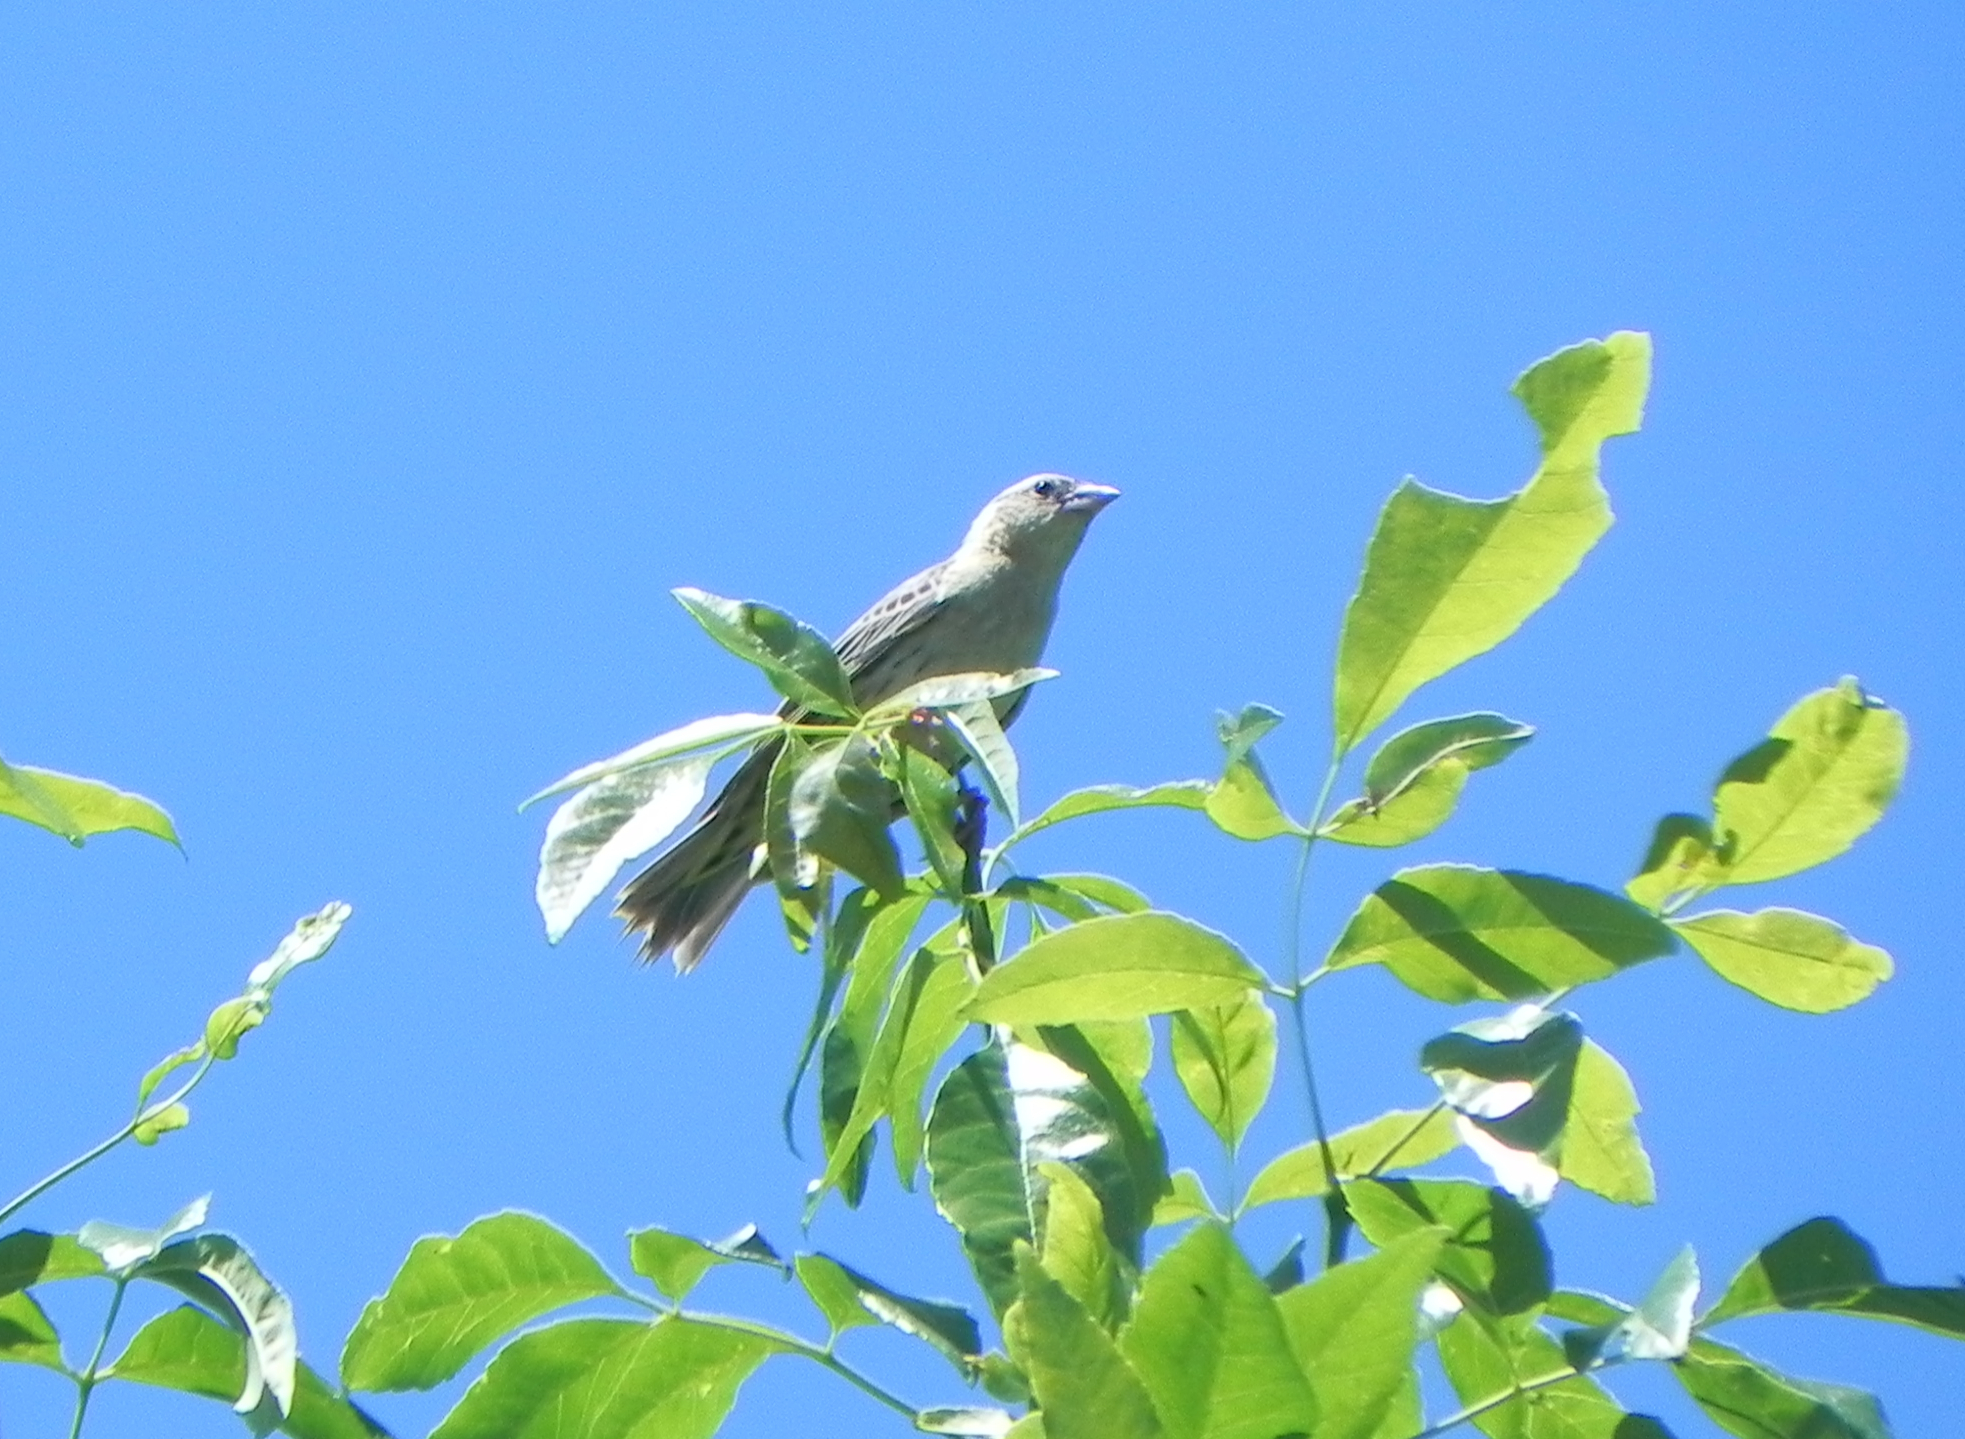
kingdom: Animalia
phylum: Chordata
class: Aves
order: Passeriformes
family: Icteridae
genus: Dolichonyx
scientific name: Dolichonyx oryzivorus
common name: Bobolink
